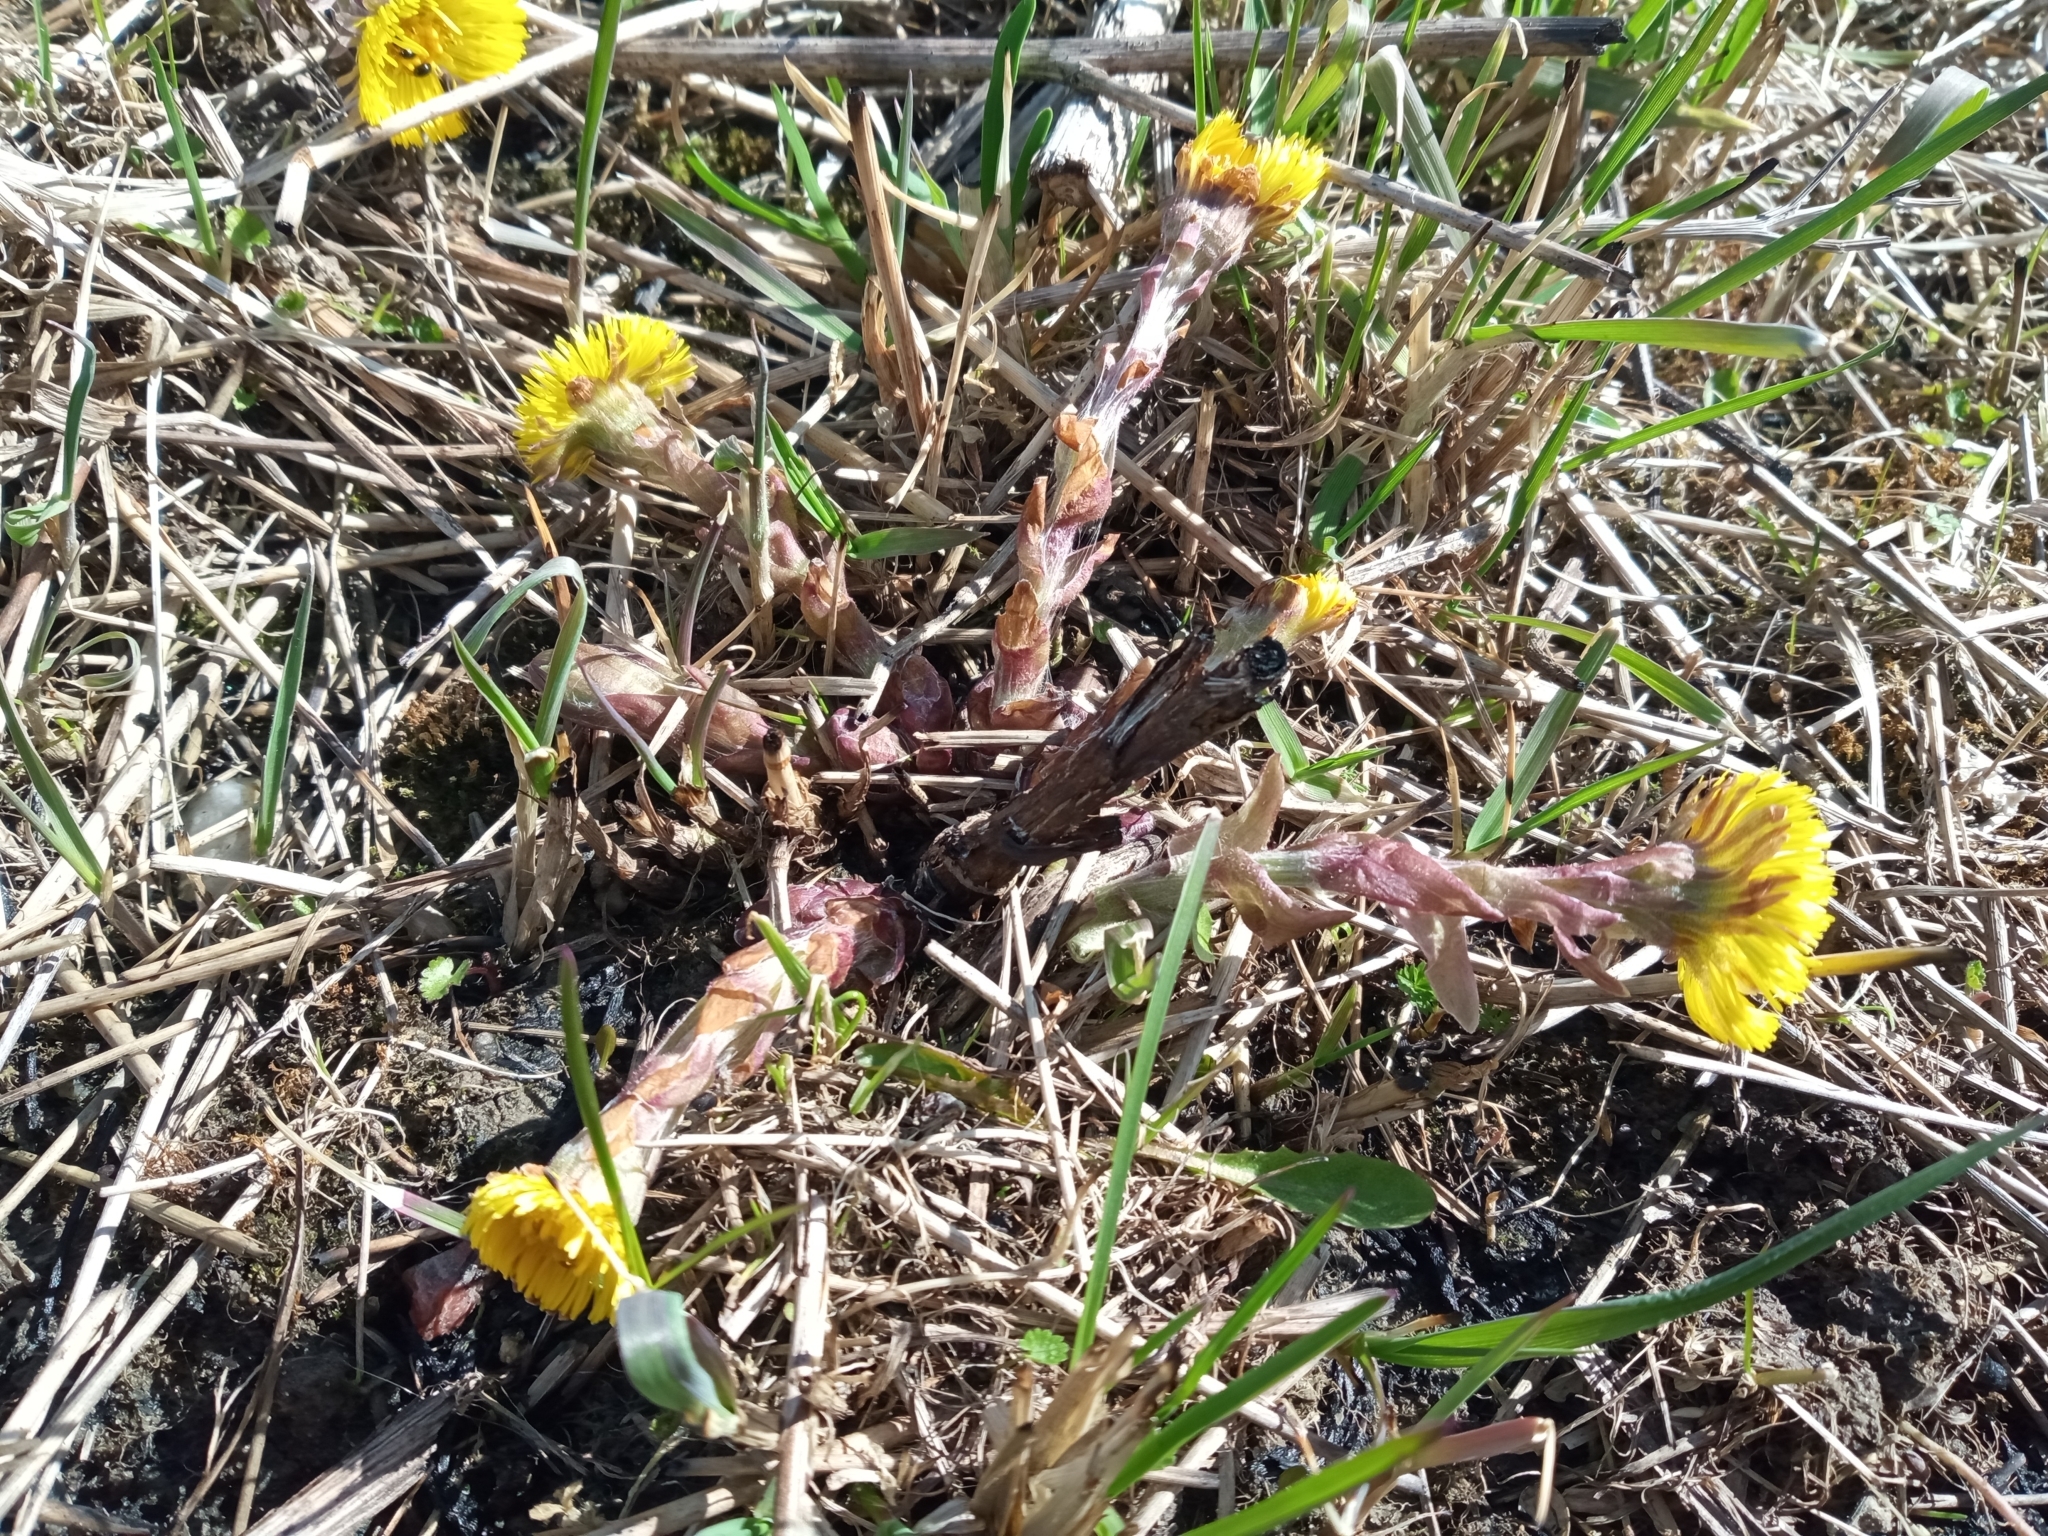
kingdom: Plantae
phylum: Tracheophyta
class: Magnoliopsida
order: Asterales
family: Asteraceae
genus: Tussilago
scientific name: Tussilago farfara
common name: Coltsfoot
